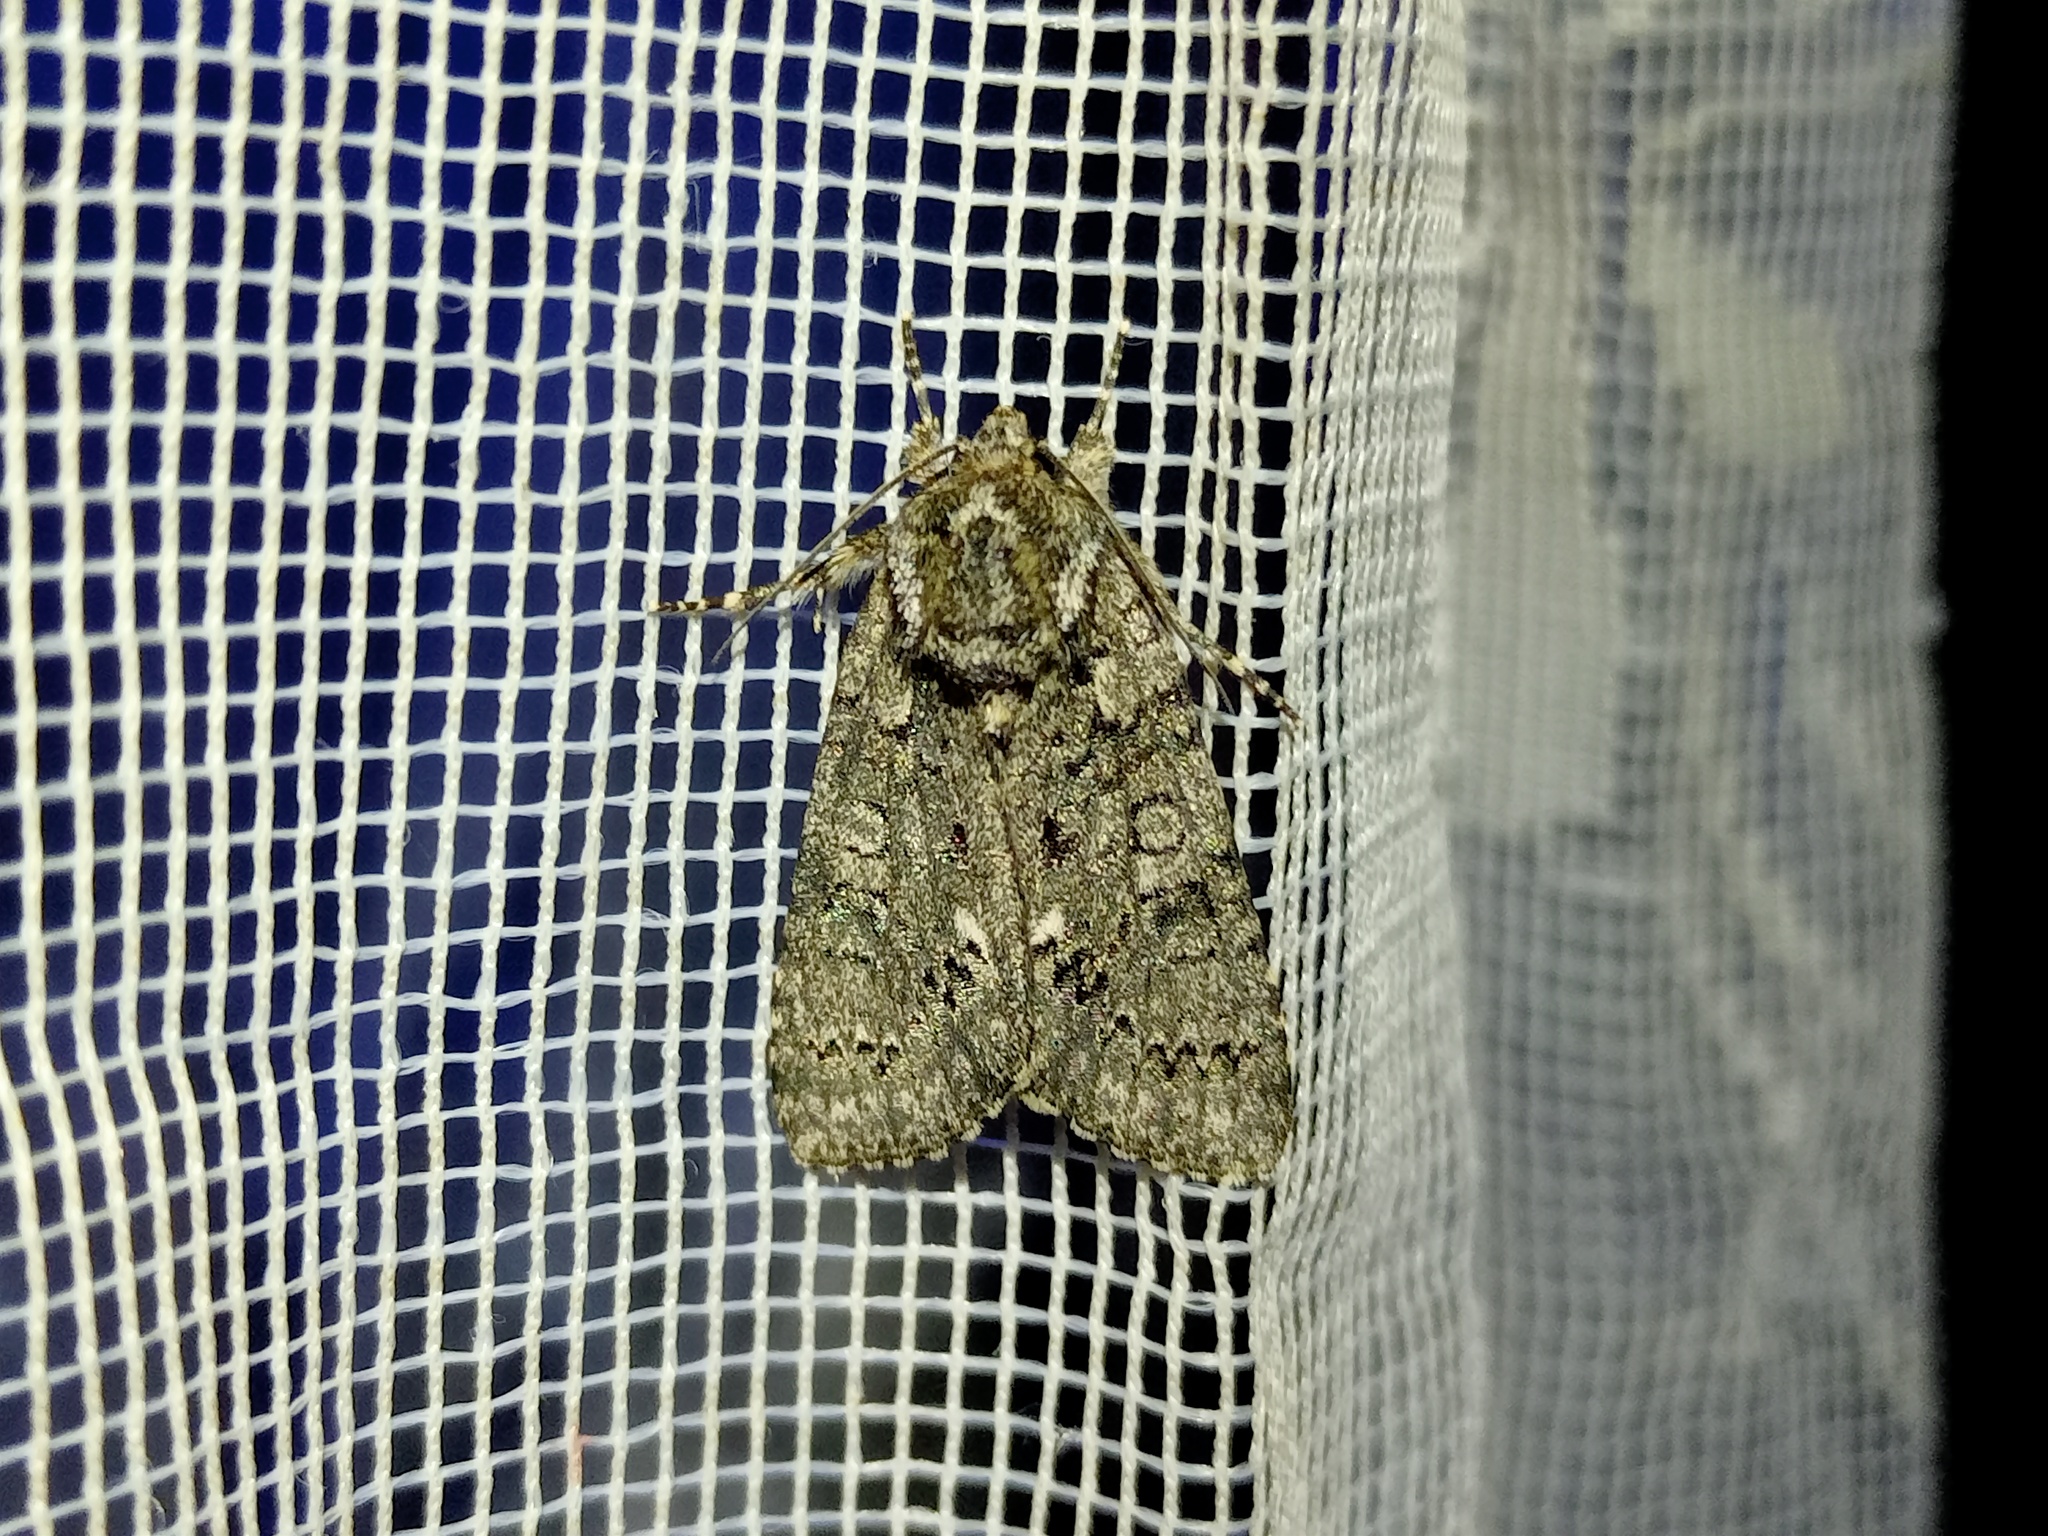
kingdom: Animalia
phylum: Arthropoda
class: Insecta
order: Lepidoptera
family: Noctuidae
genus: Acronicta
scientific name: Acronicta rumicis
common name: Knot grass
